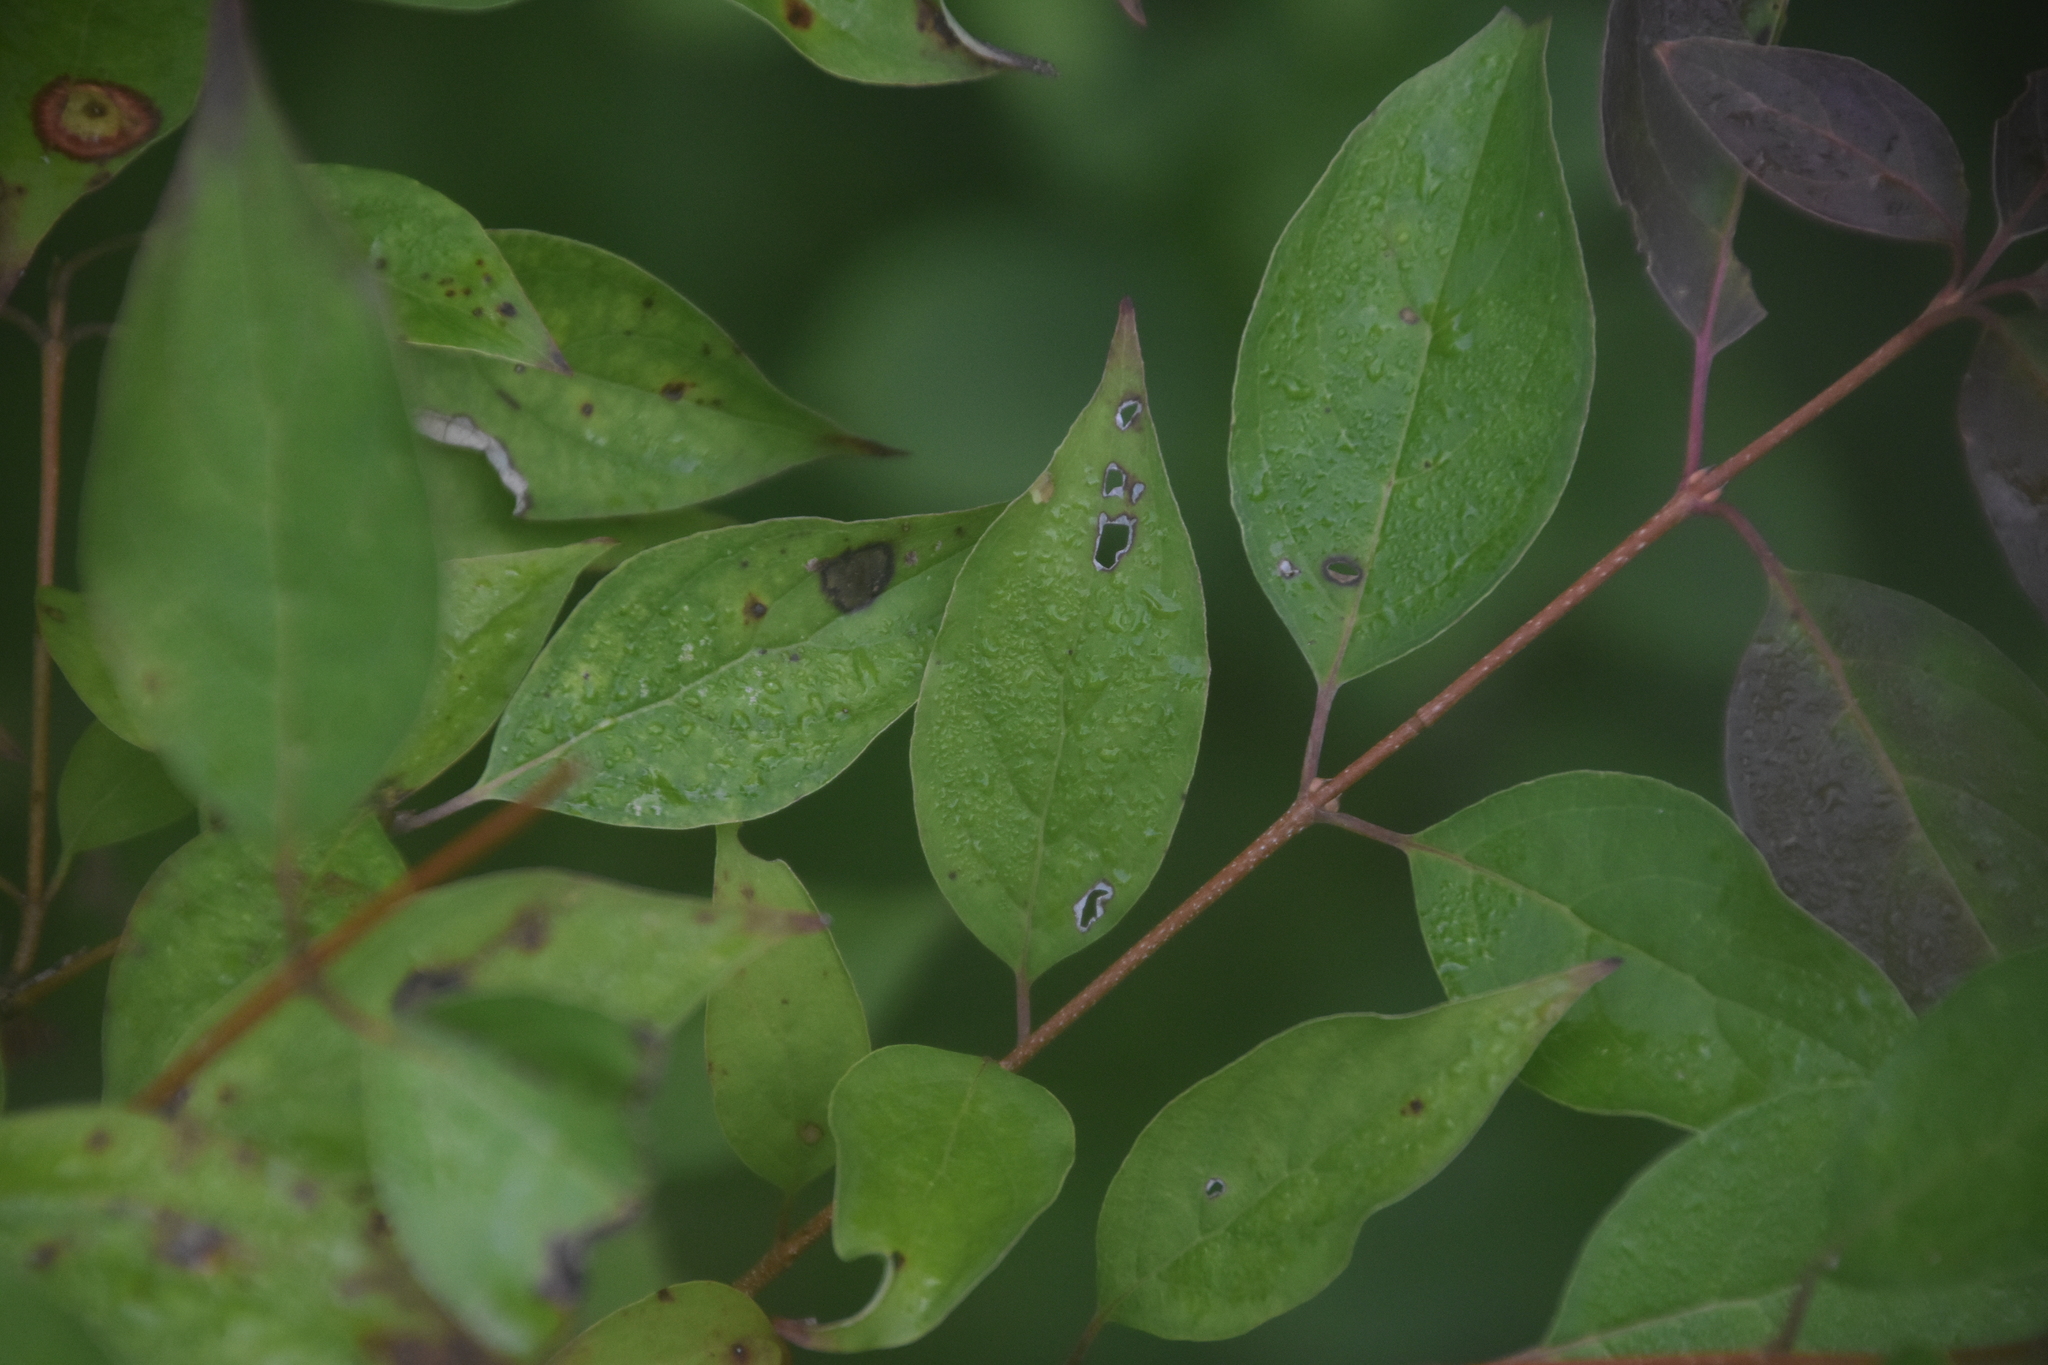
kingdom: Plantae
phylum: Tracheophyta
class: Magnoliopsida
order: Cornales
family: Cornaceae
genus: Cornus
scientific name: Cornus racemosa
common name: Panicled dogwood
